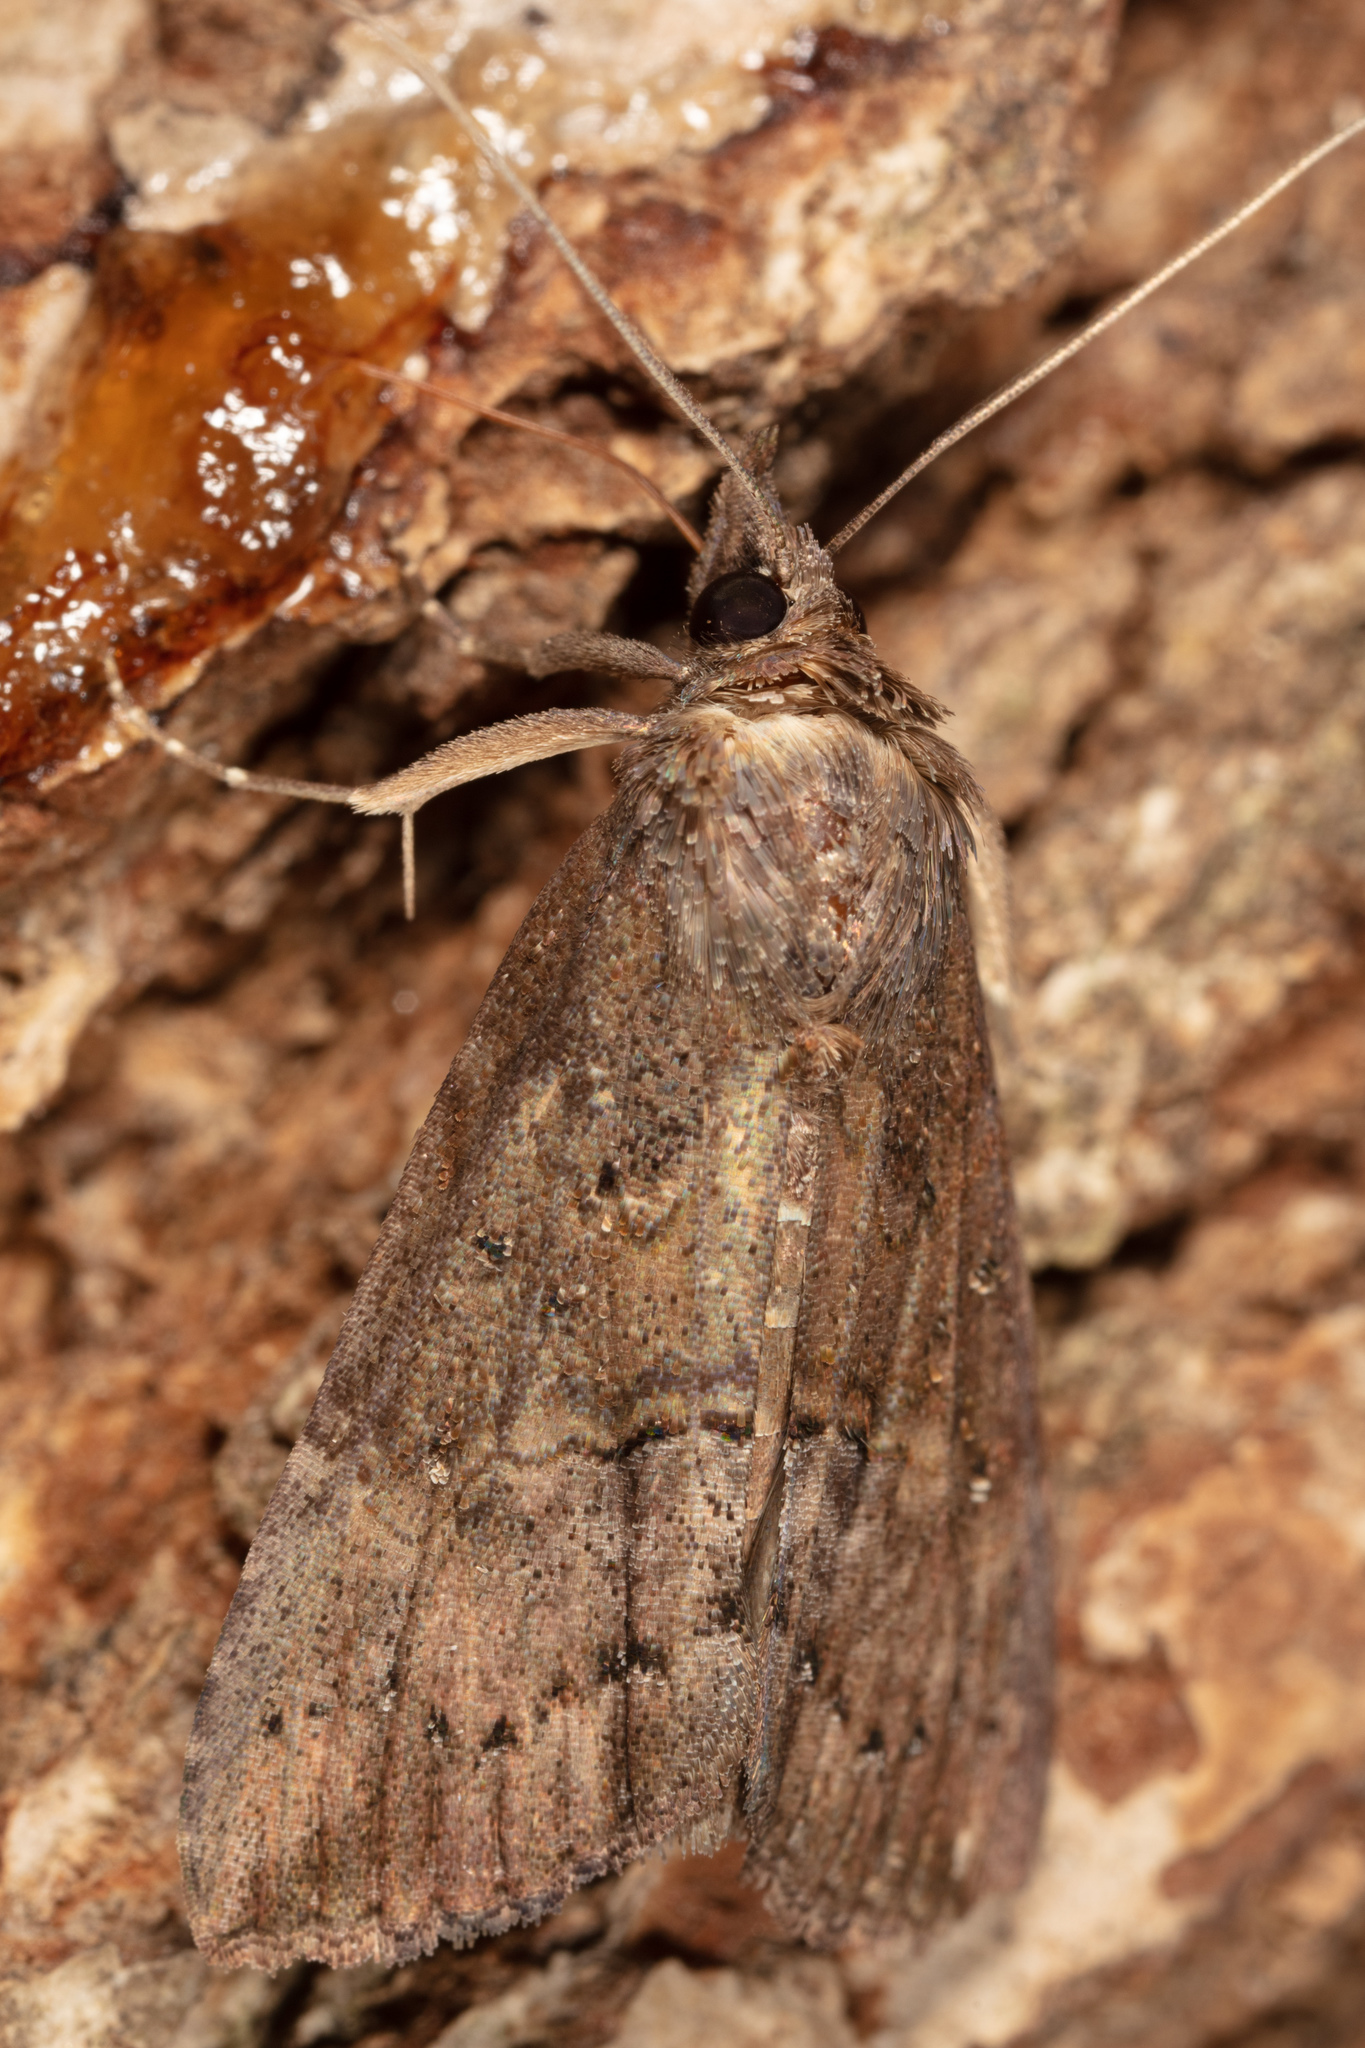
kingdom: Animalia
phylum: Arthropoda
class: Insecta
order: Lepidoptera
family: Erebidae
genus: Hypena
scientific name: Hypena scabra
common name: Green cloverworm
